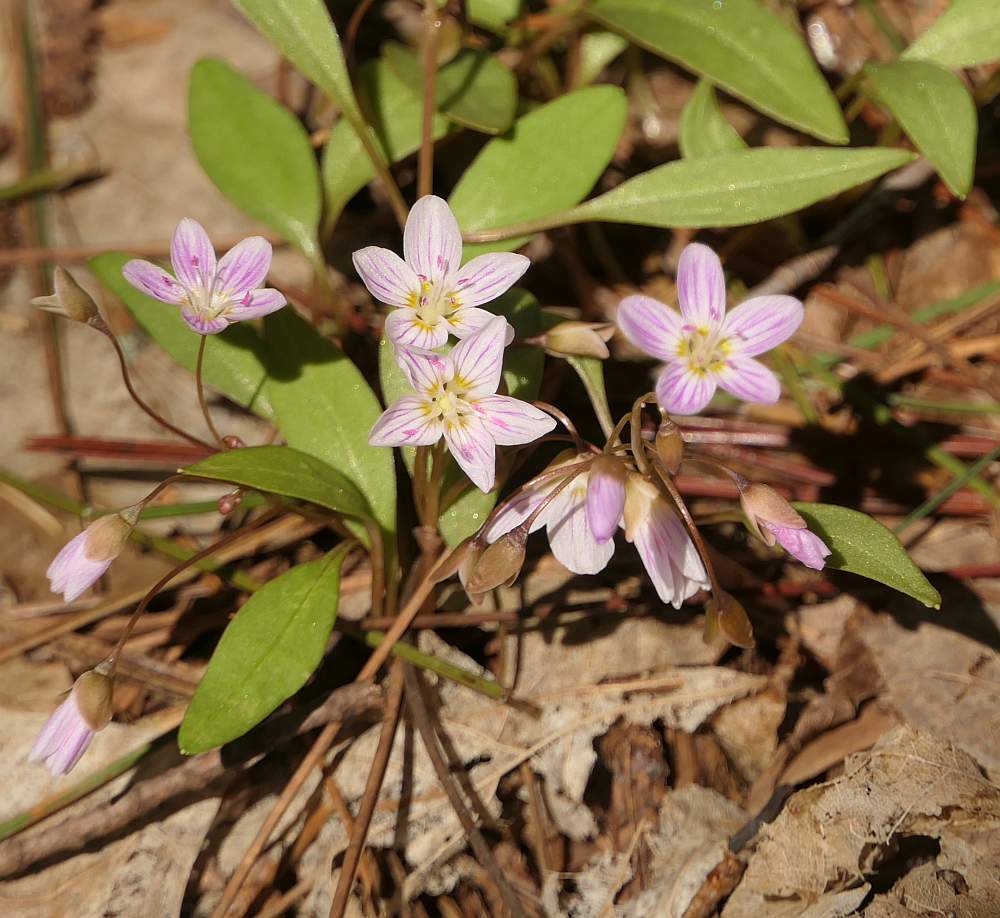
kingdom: Plantae
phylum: Tracheophyta
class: Magnoliopsida
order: Caryophyllales
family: Montiaceae
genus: Claytonia
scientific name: Claytonia caroliniana
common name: Carolina spring beauty
